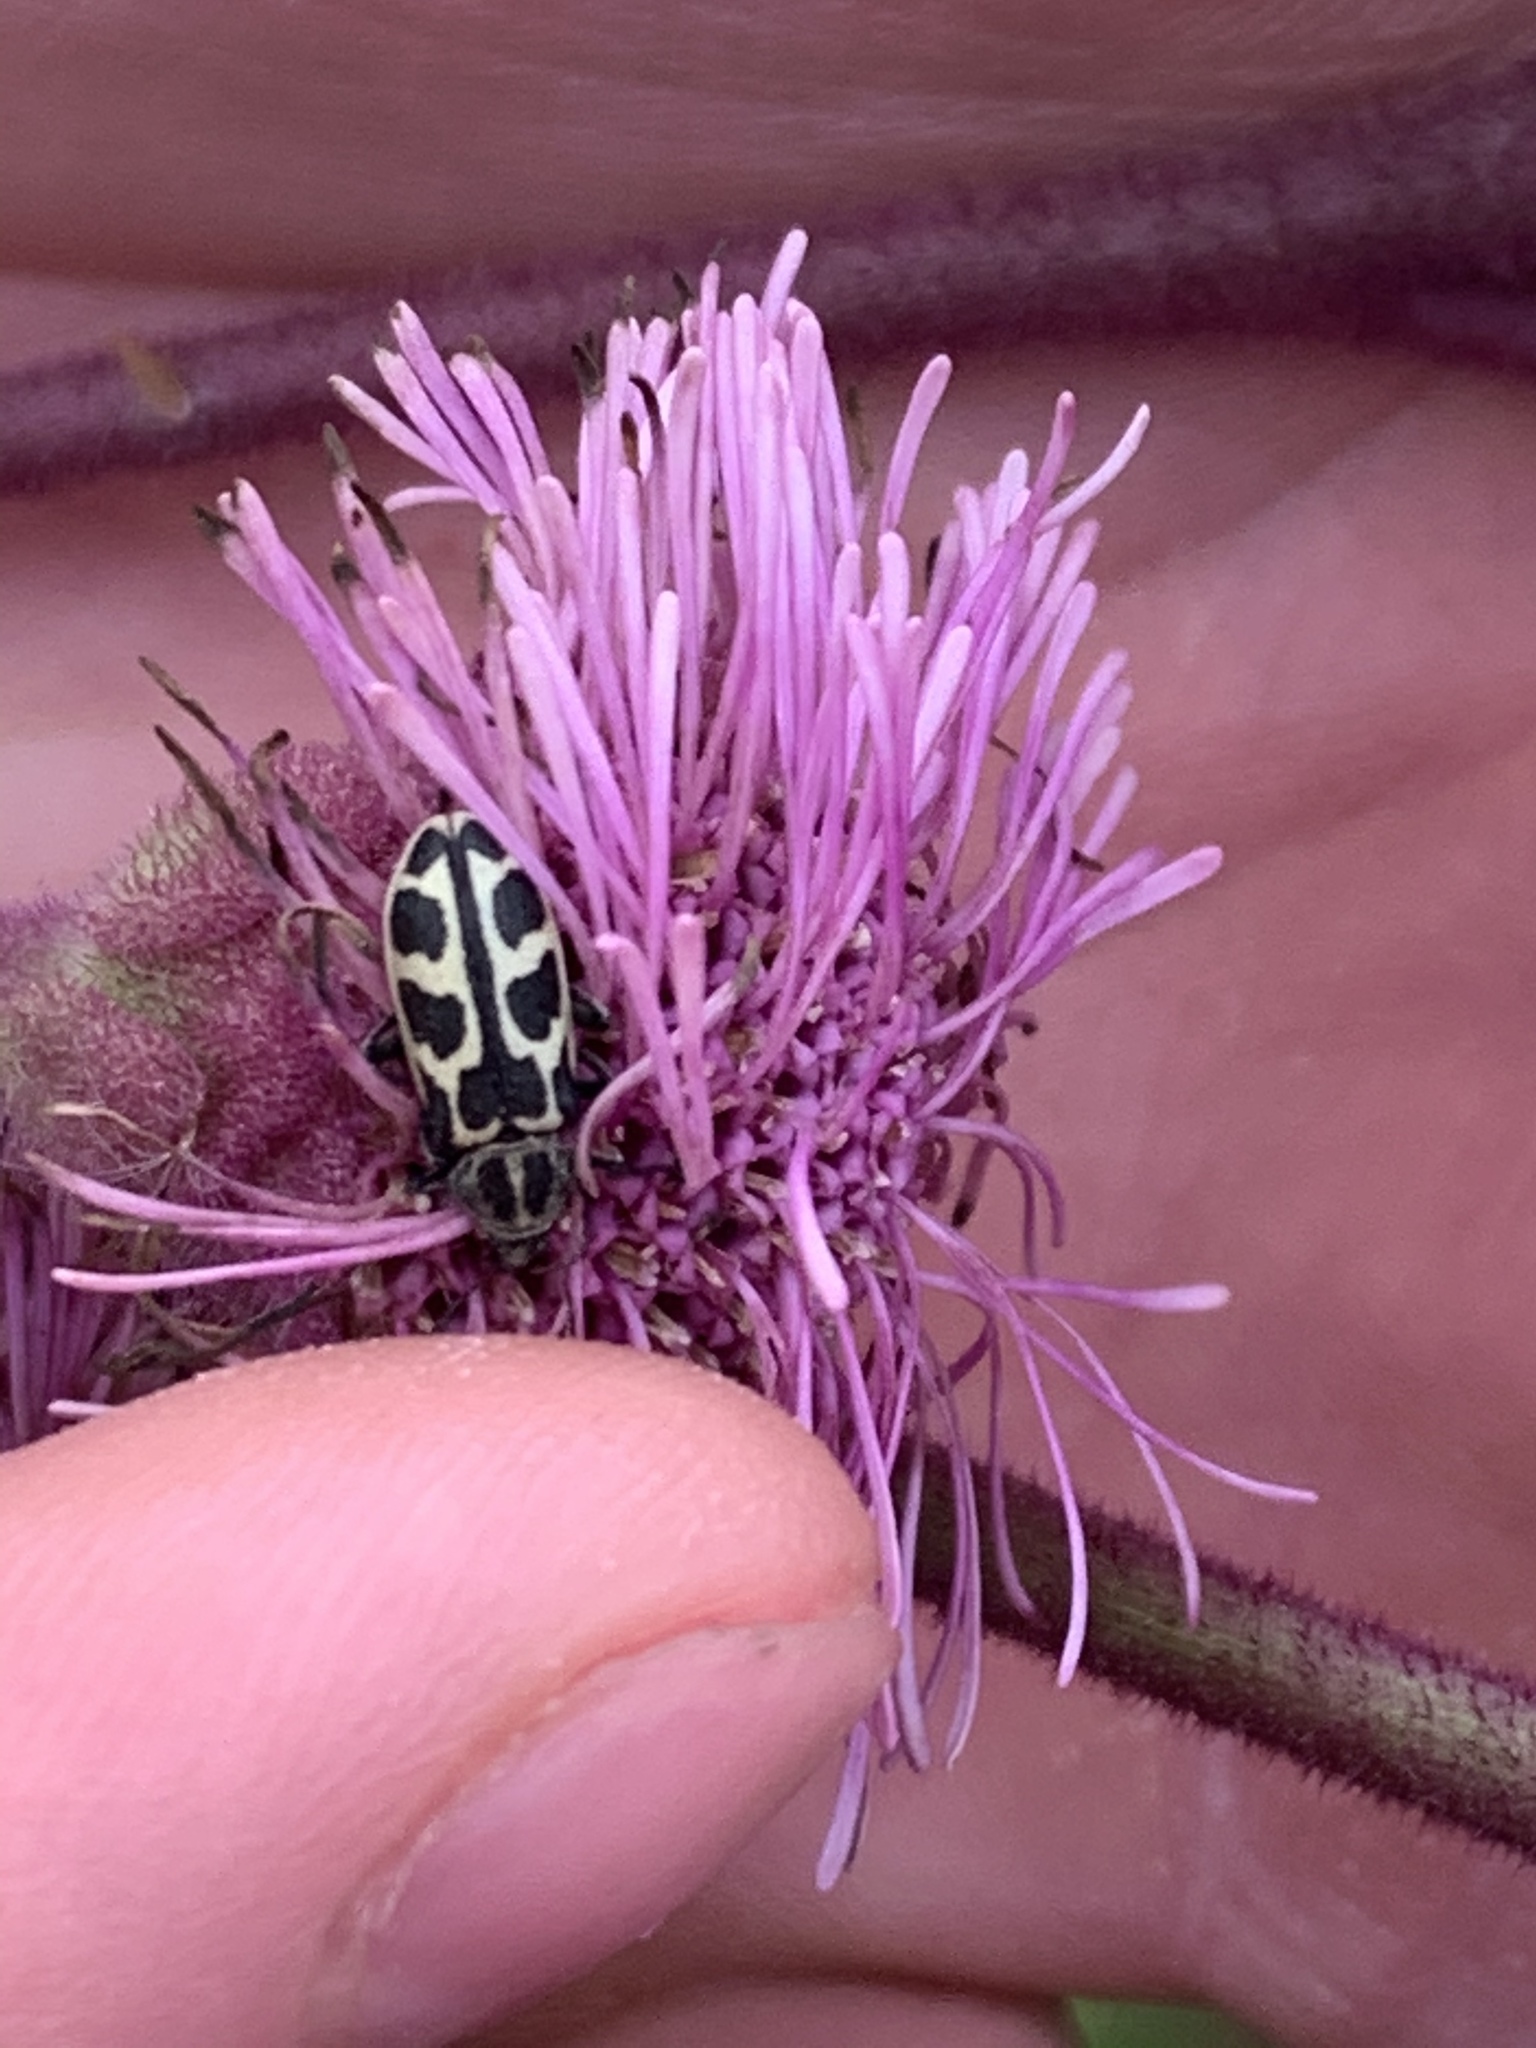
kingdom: Animalia
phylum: Arthropoda
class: Insecta
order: Coleoptera
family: Melyridae
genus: Astylus
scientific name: Astylus atromaculatus
